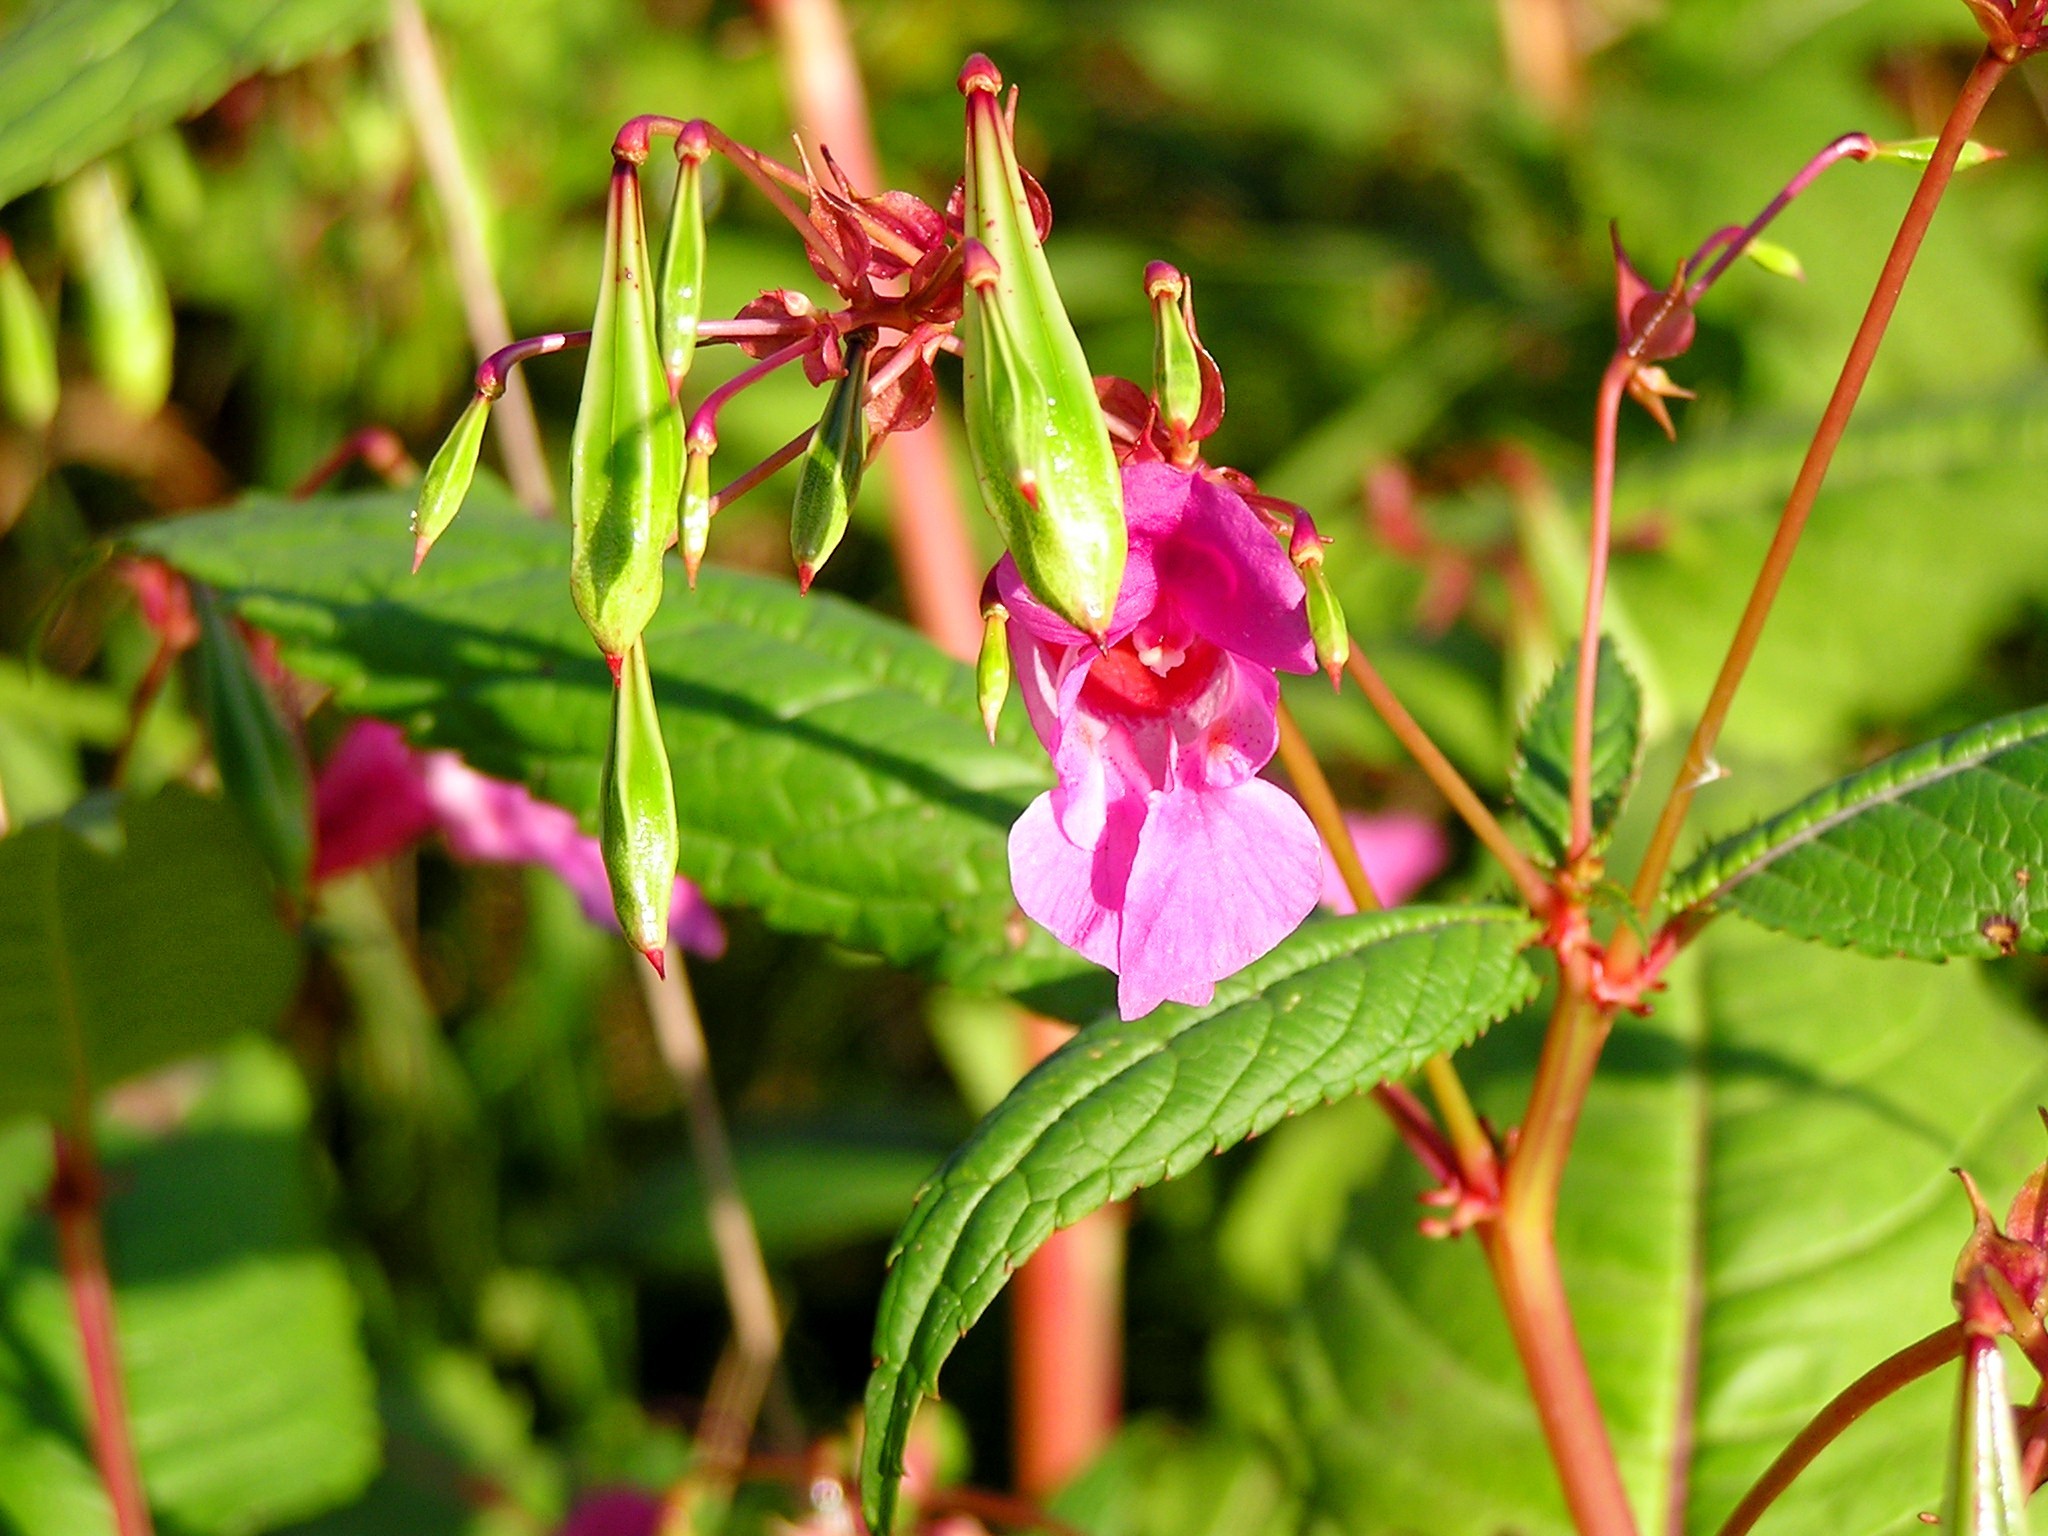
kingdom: Plantae
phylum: Tracheophyta
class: Magnoliopsida
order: Ericales
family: Balsaminaceae
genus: Impatiens
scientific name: Impatiens glandulifera
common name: Himalayan balsam
